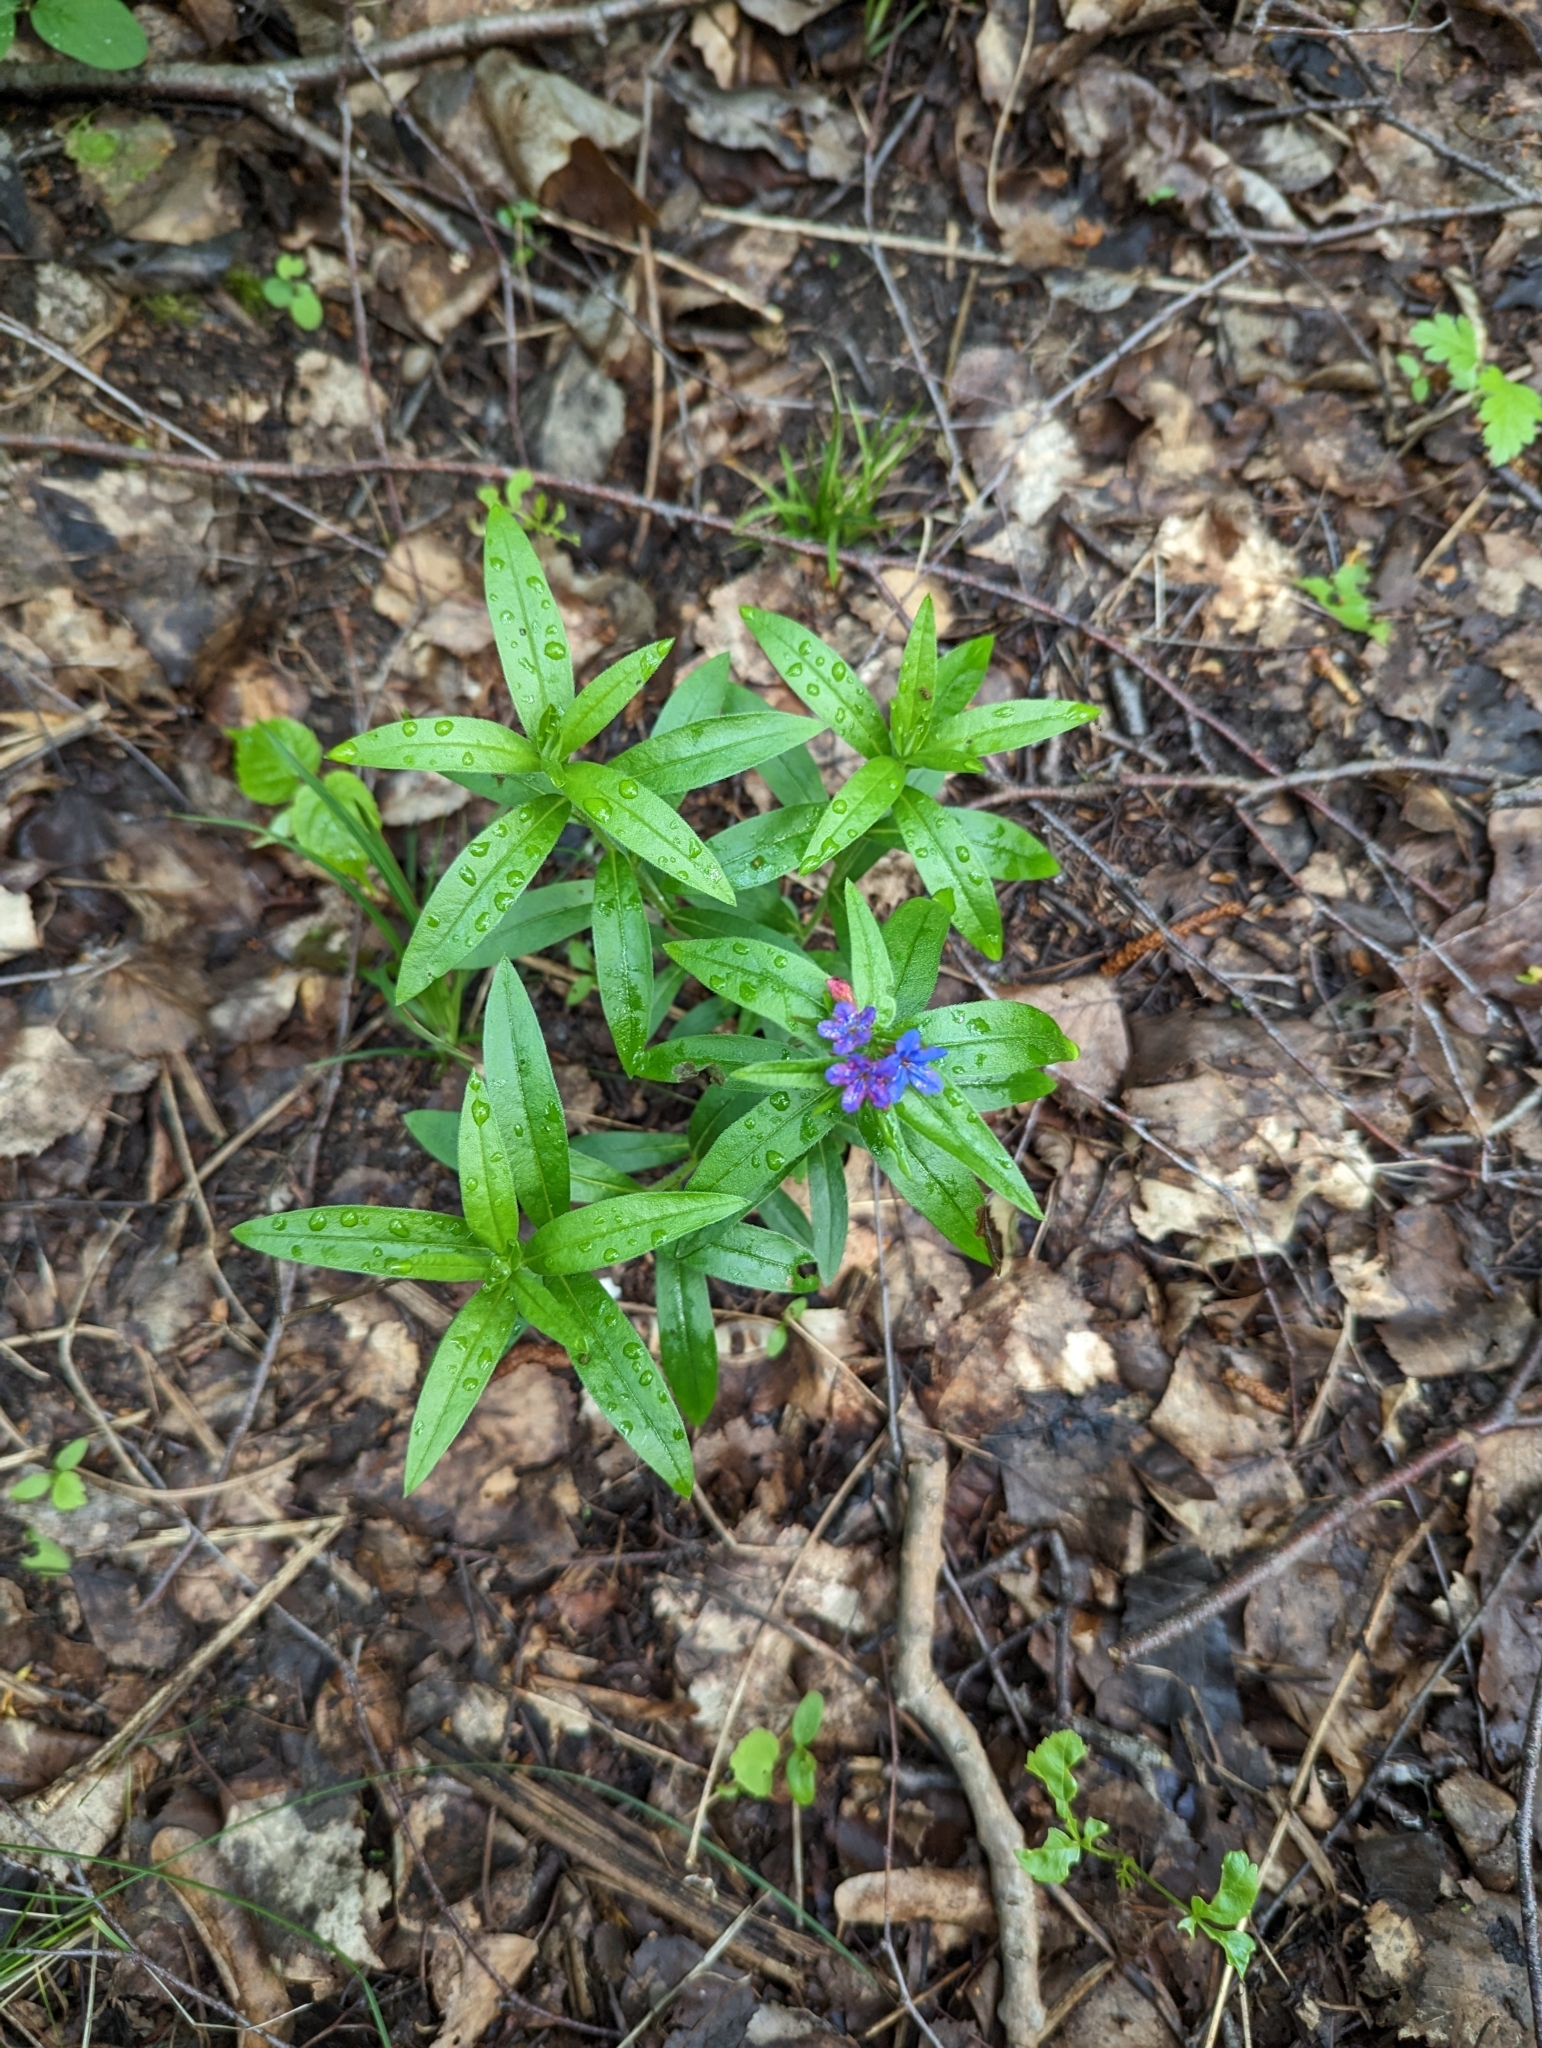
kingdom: Plantae
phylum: Tracheophyta
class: Magnoliopsida
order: Boraginales
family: Boraginaceae
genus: Aegonychon
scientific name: Aegonychon purpurocaeruleum
